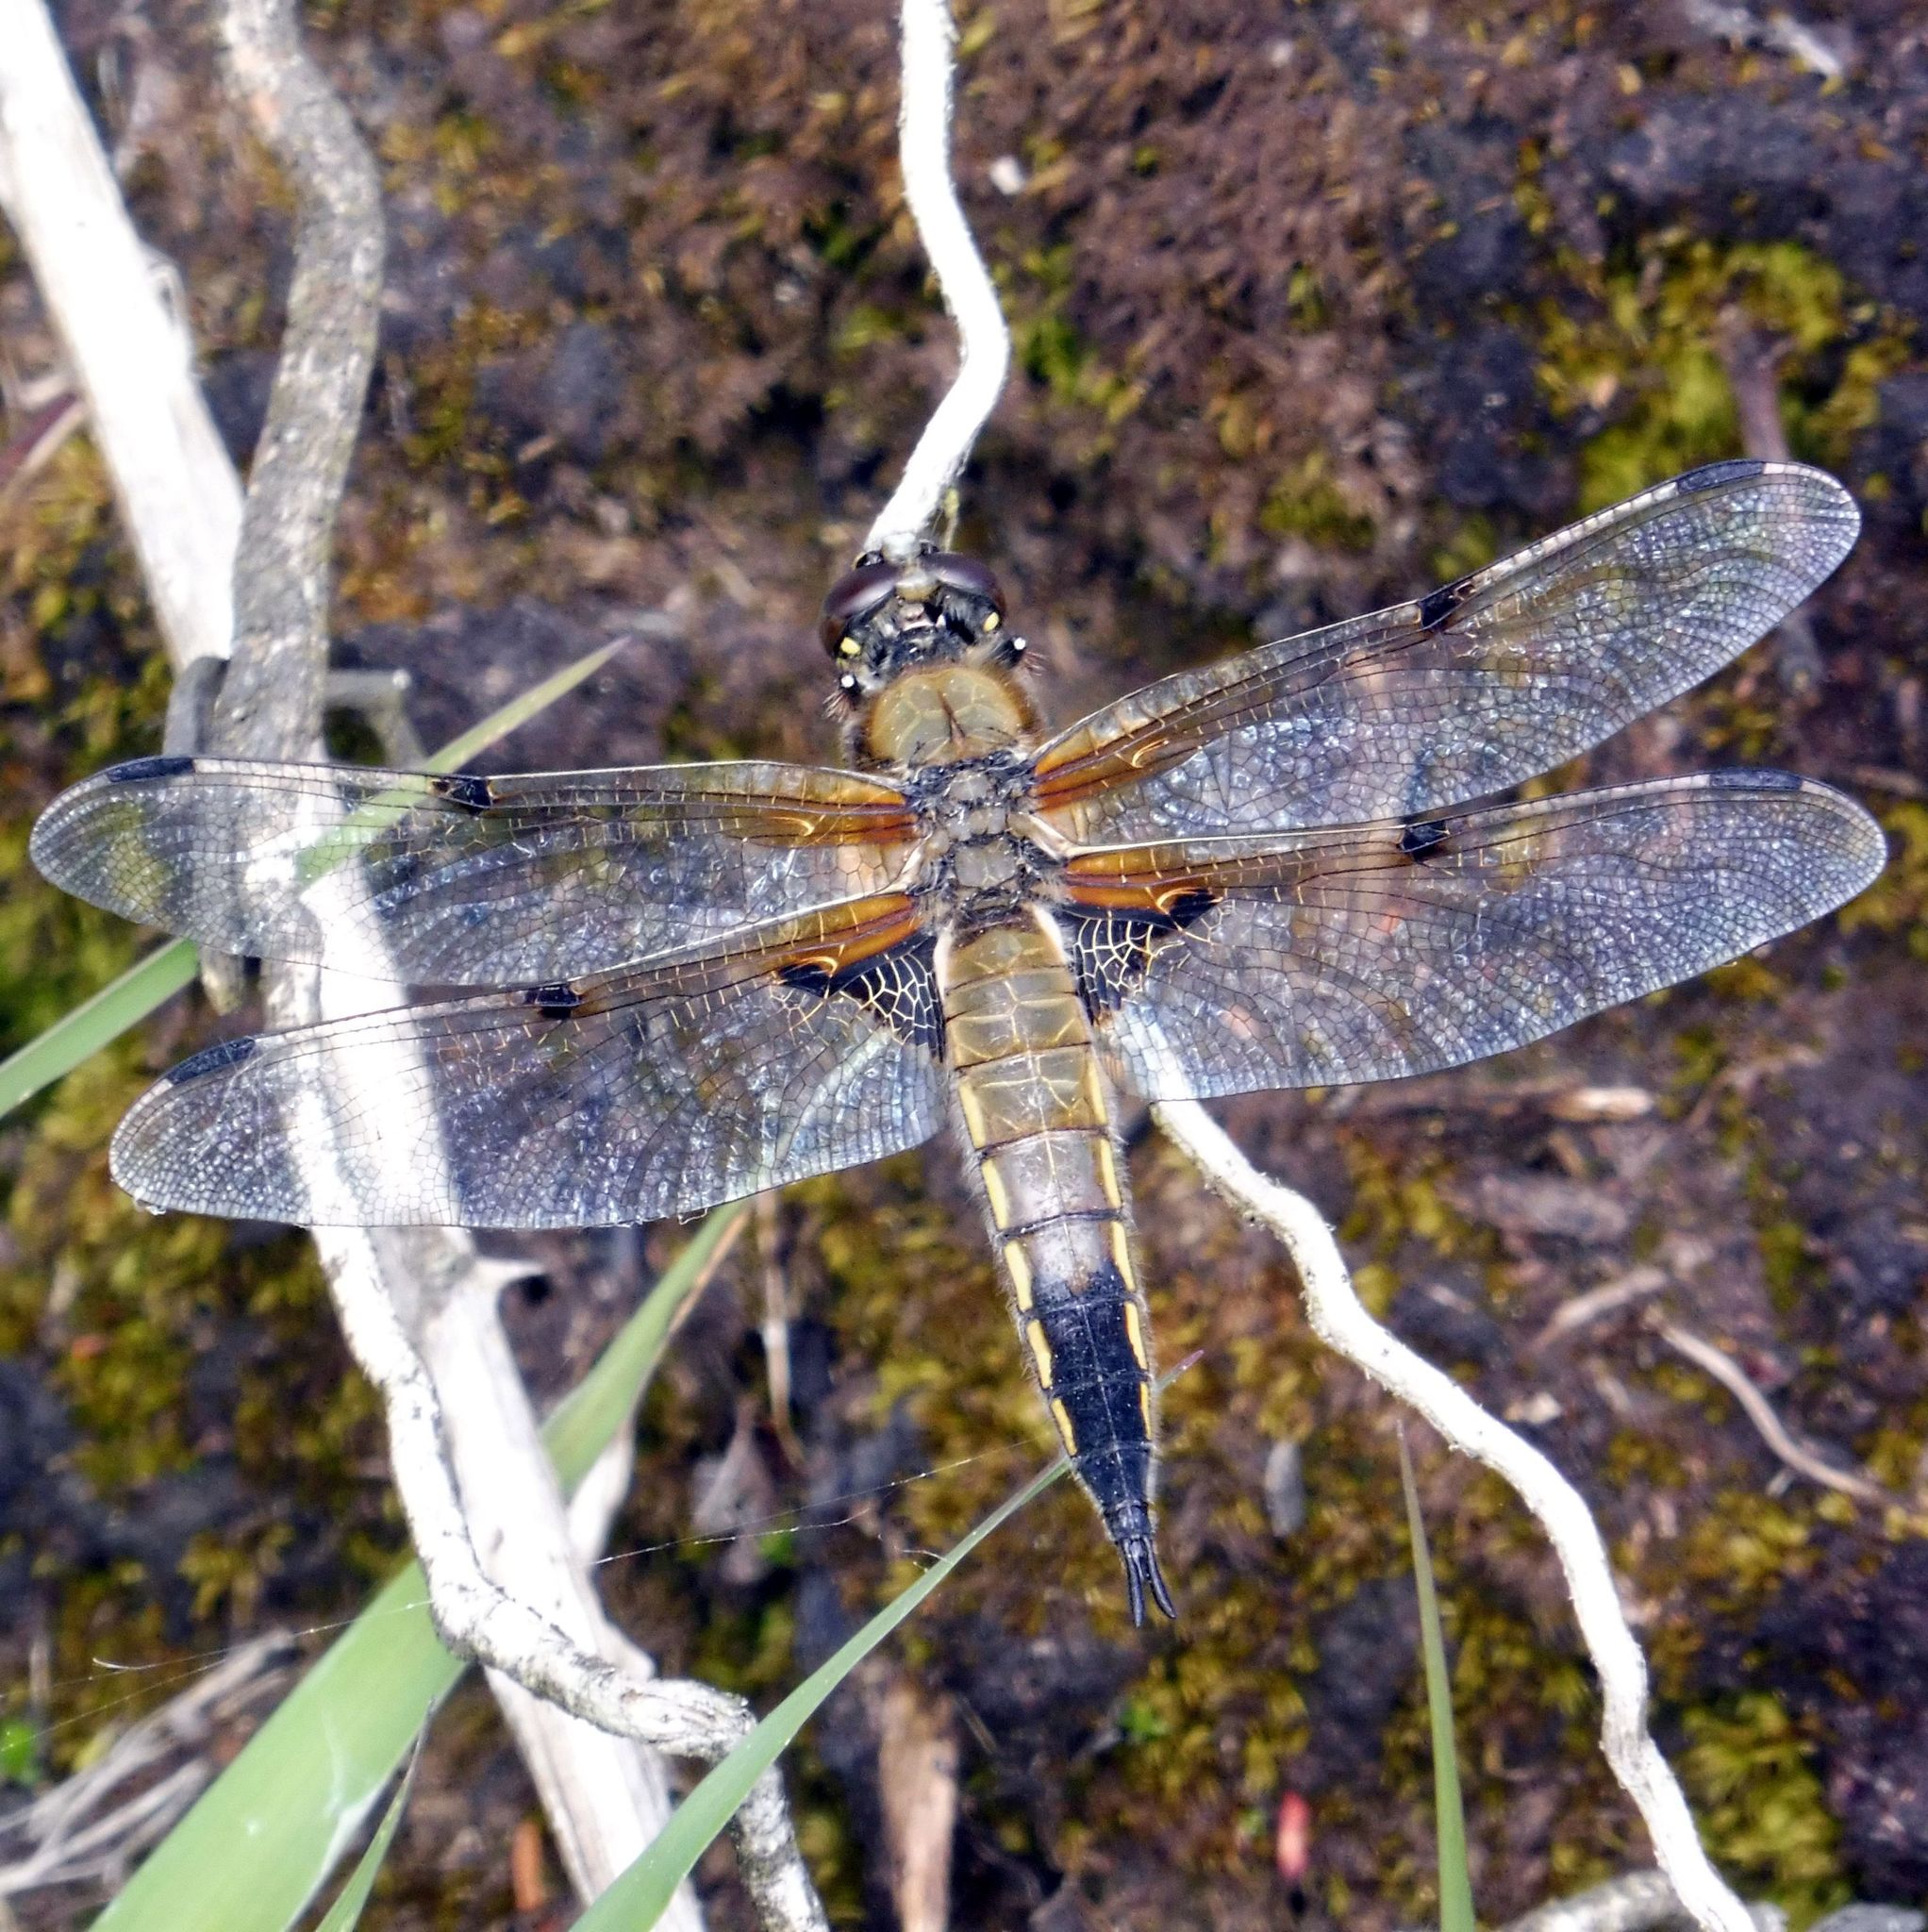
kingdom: Animalia
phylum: Arthropoda
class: Insecta
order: Odonata
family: Libellulidae
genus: Libellula
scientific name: Libellula quadrimaculata
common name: Four-spotted chaser
